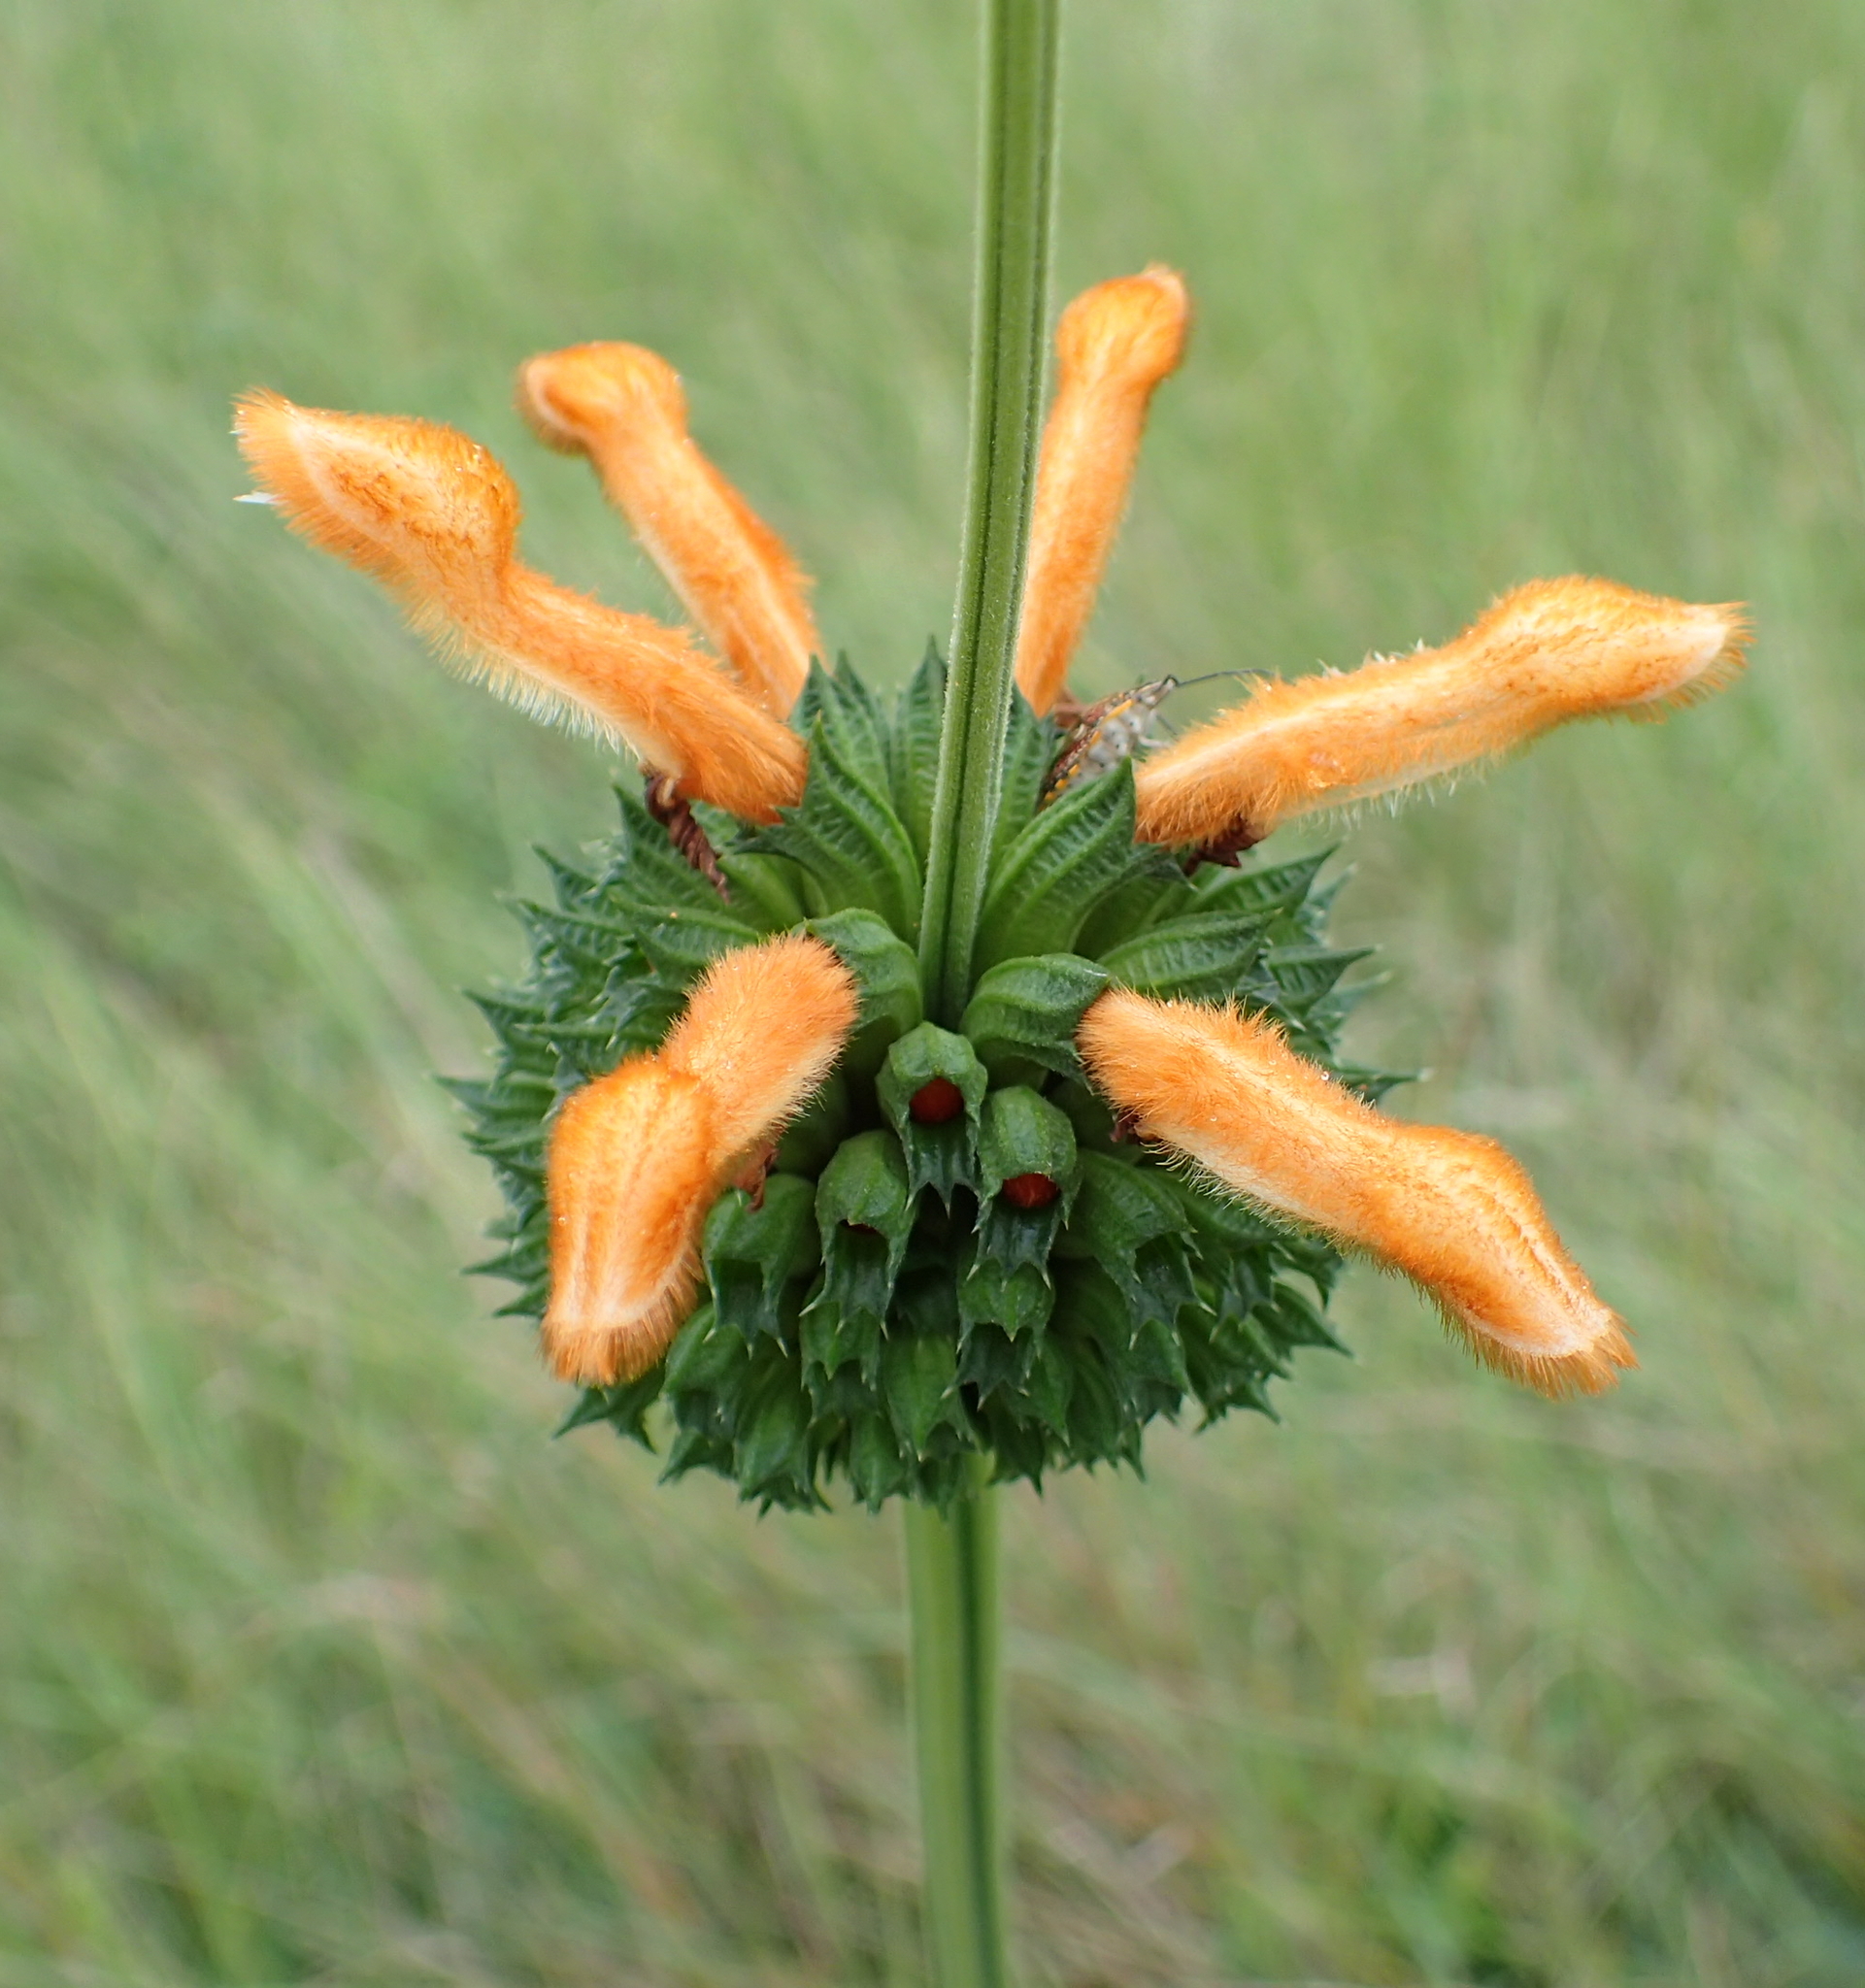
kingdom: Plantae
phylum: Tracheophyta
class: Magnoliopsida
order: Lamiales
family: Lamiaceae
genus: Leonotis
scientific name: Leonotis ocymifolia
